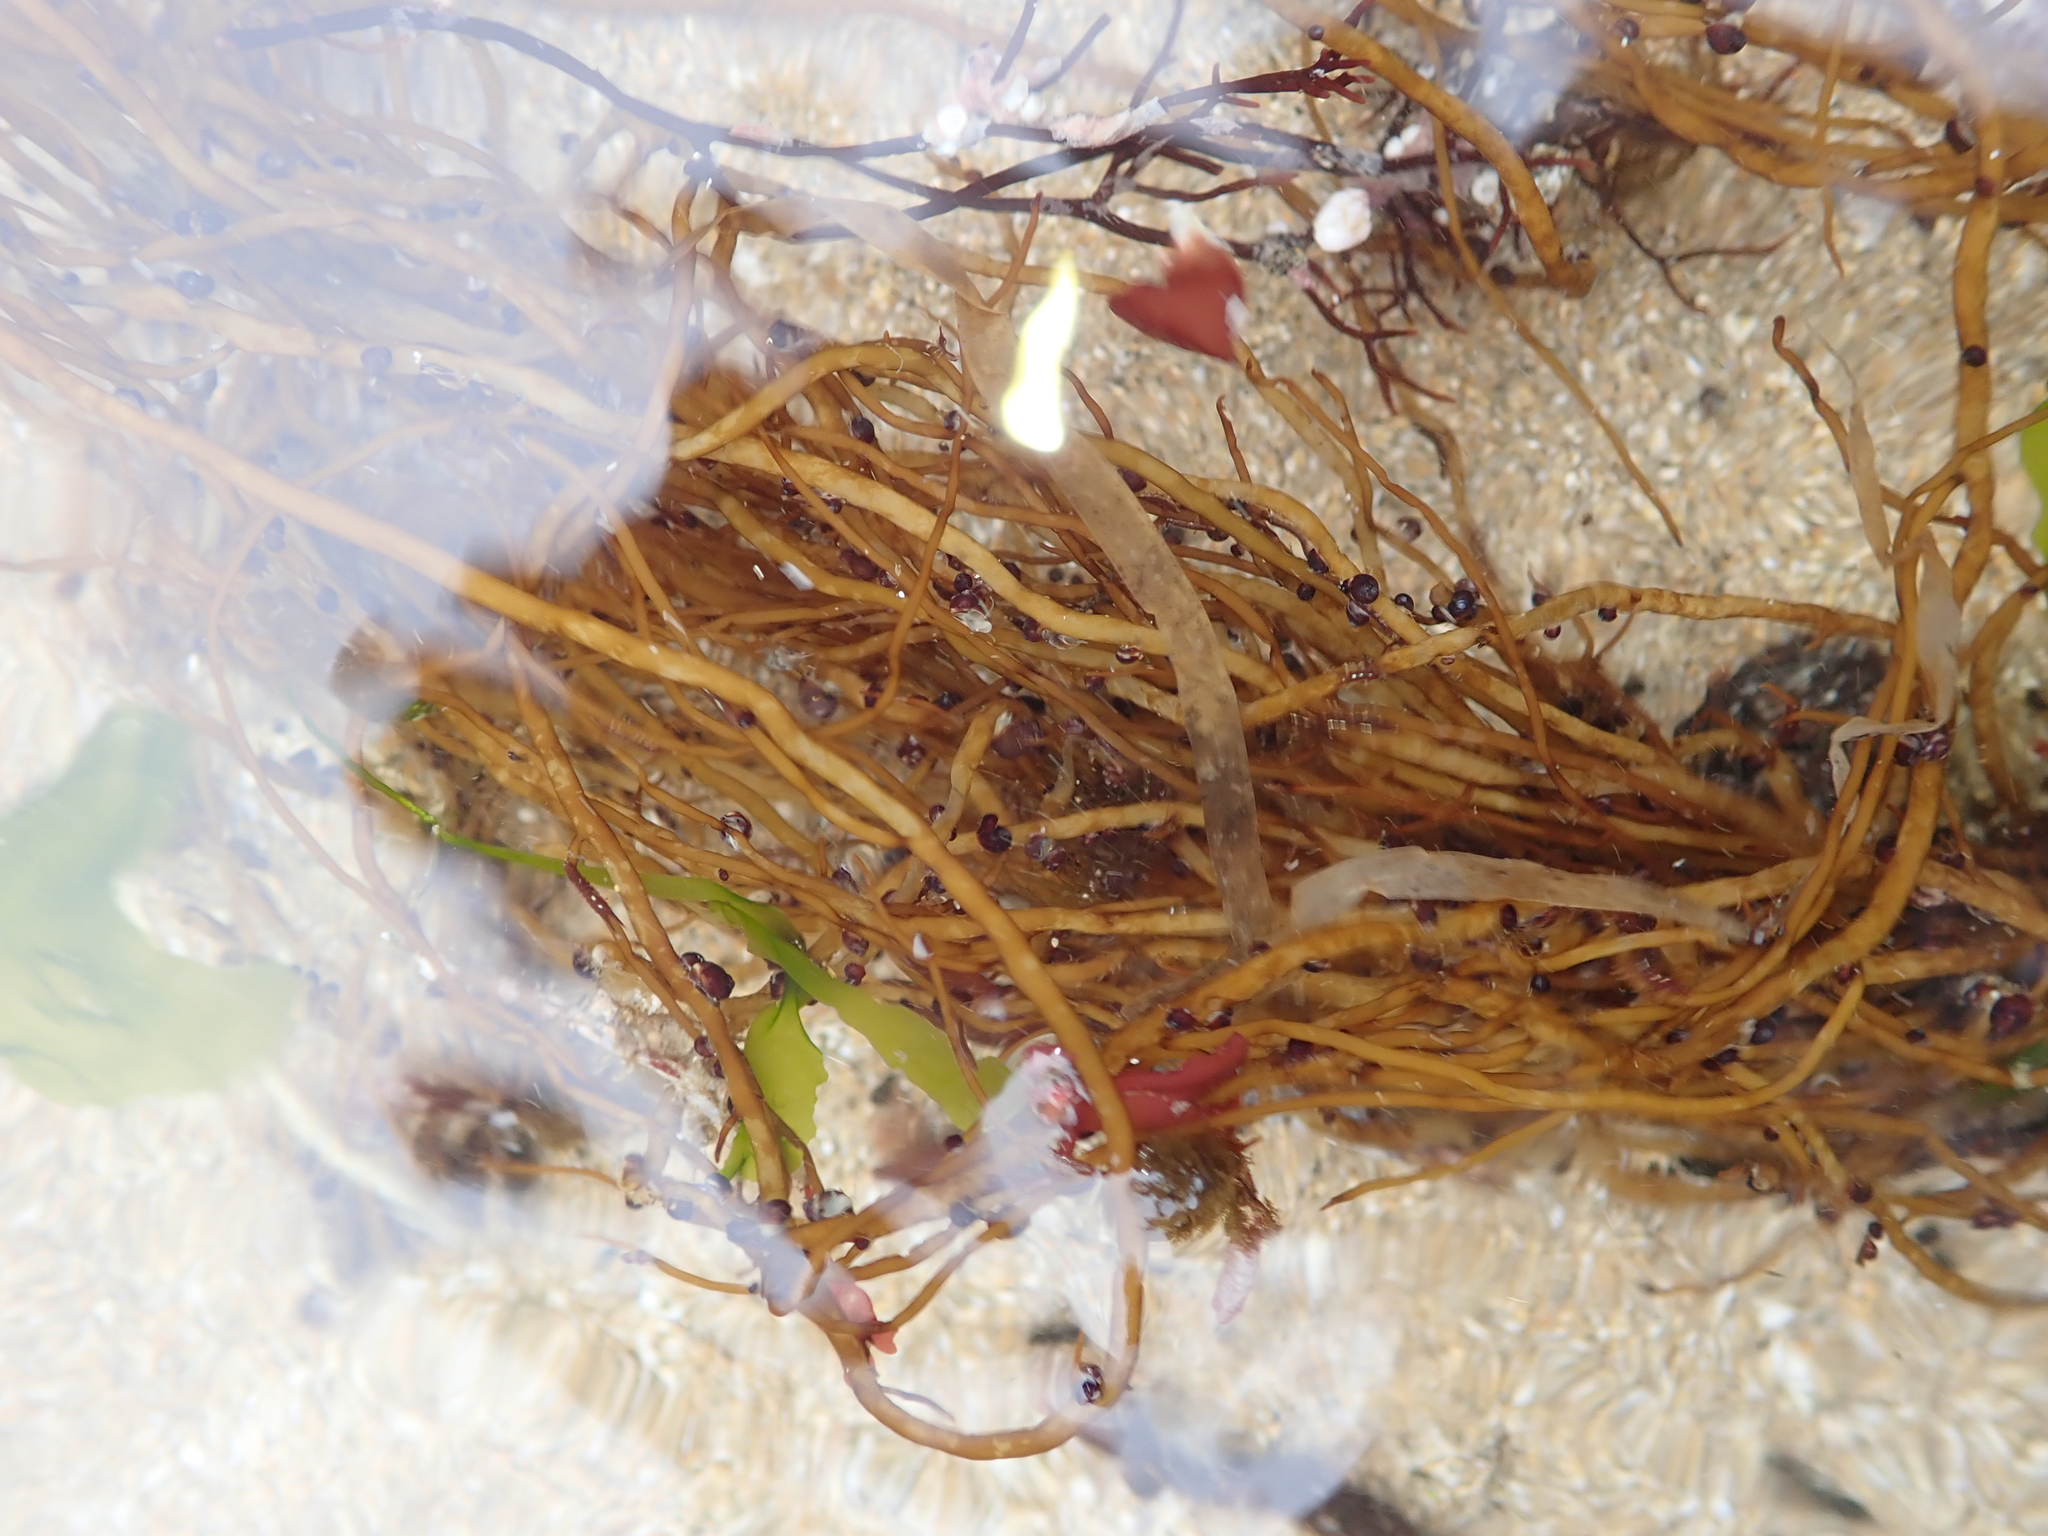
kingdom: Plantae
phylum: Rhodophyta
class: Florideophyceae
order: Gracilariales
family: Gracilariaceae
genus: Gracilariopsis
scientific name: Gracilariopsis andersonii
